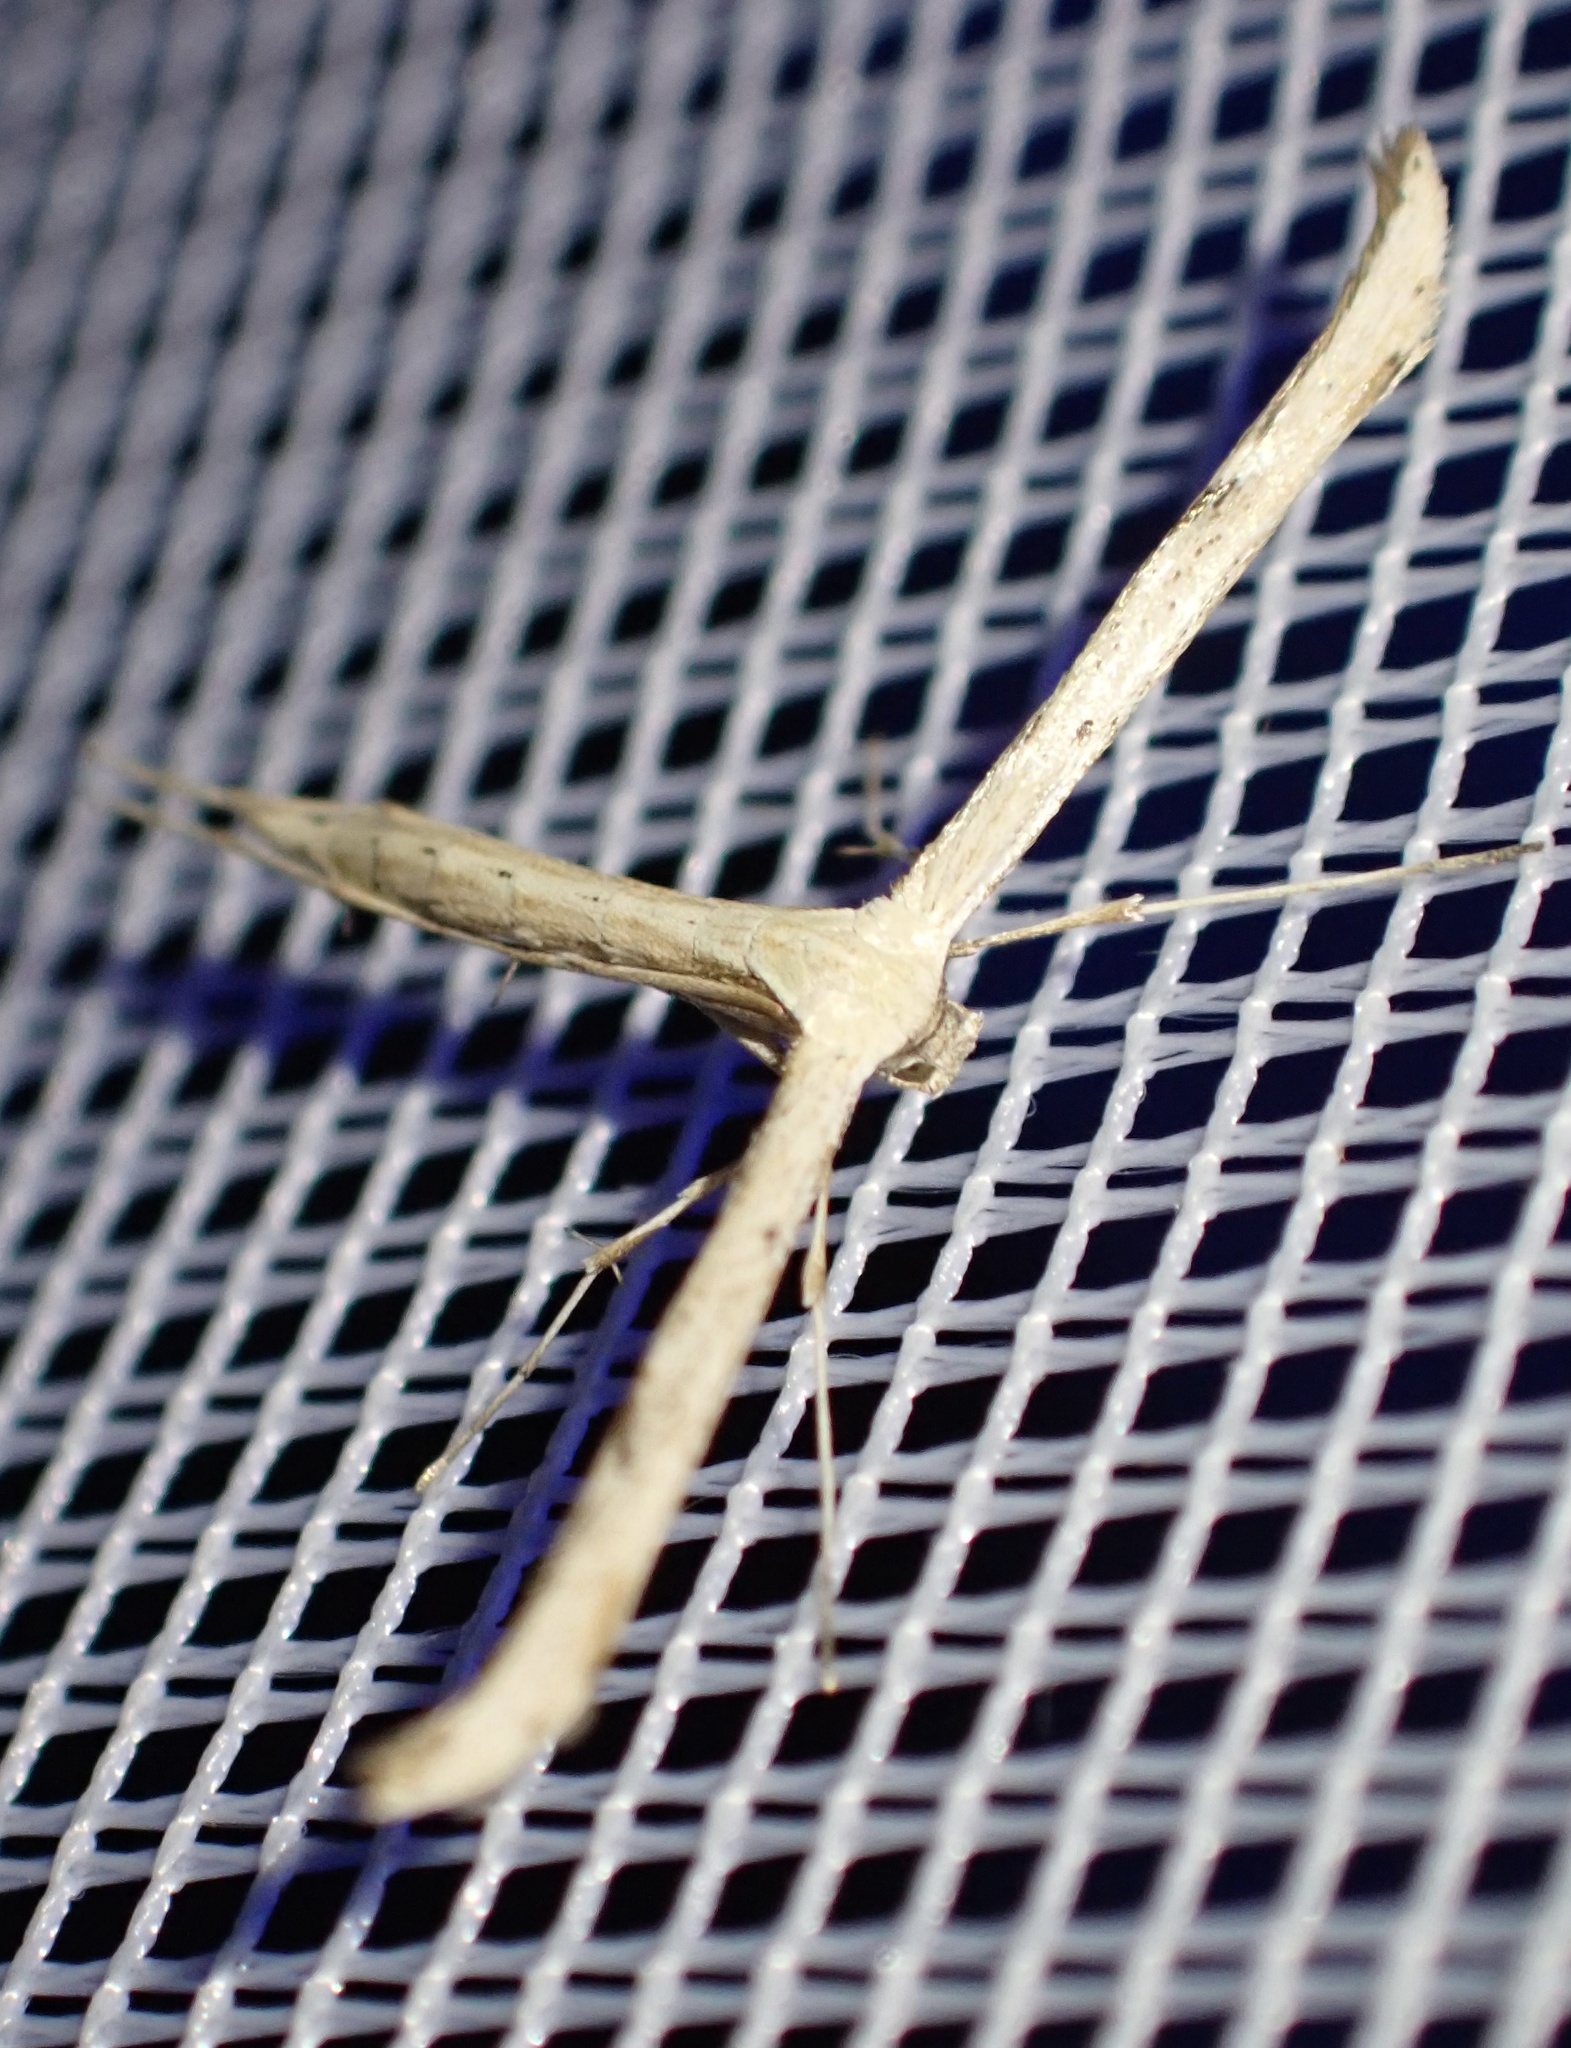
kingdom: Animalia
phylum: Arthropoda
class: Insecta
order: Lepidoptera
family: Pterophoridae
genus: Emmelina
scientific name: Emmelina monodactyla
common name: Common plume
